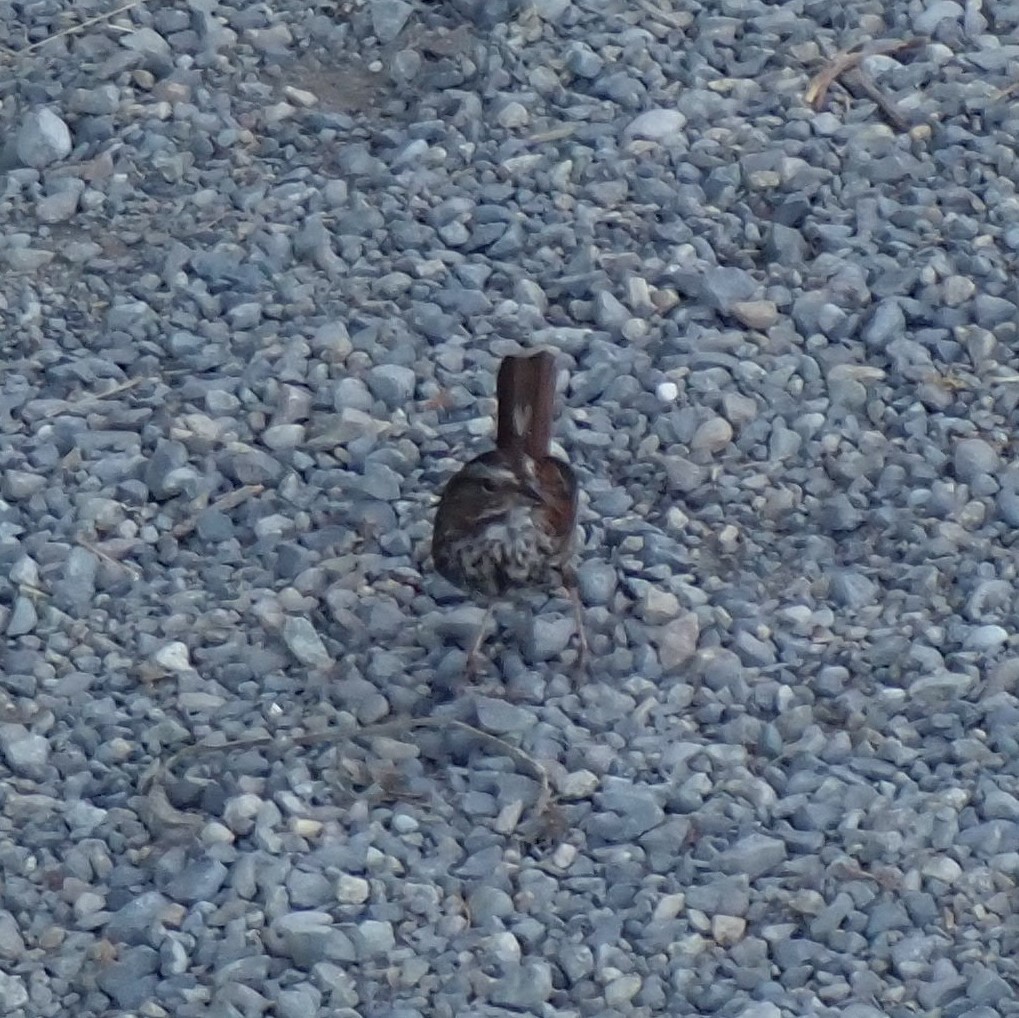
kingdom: Animalia
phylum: Chordata
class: Aves
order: Passeriformes
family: Passerellidae
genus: Melospiza
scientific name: Melospiza melodia
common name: Song sparrow
